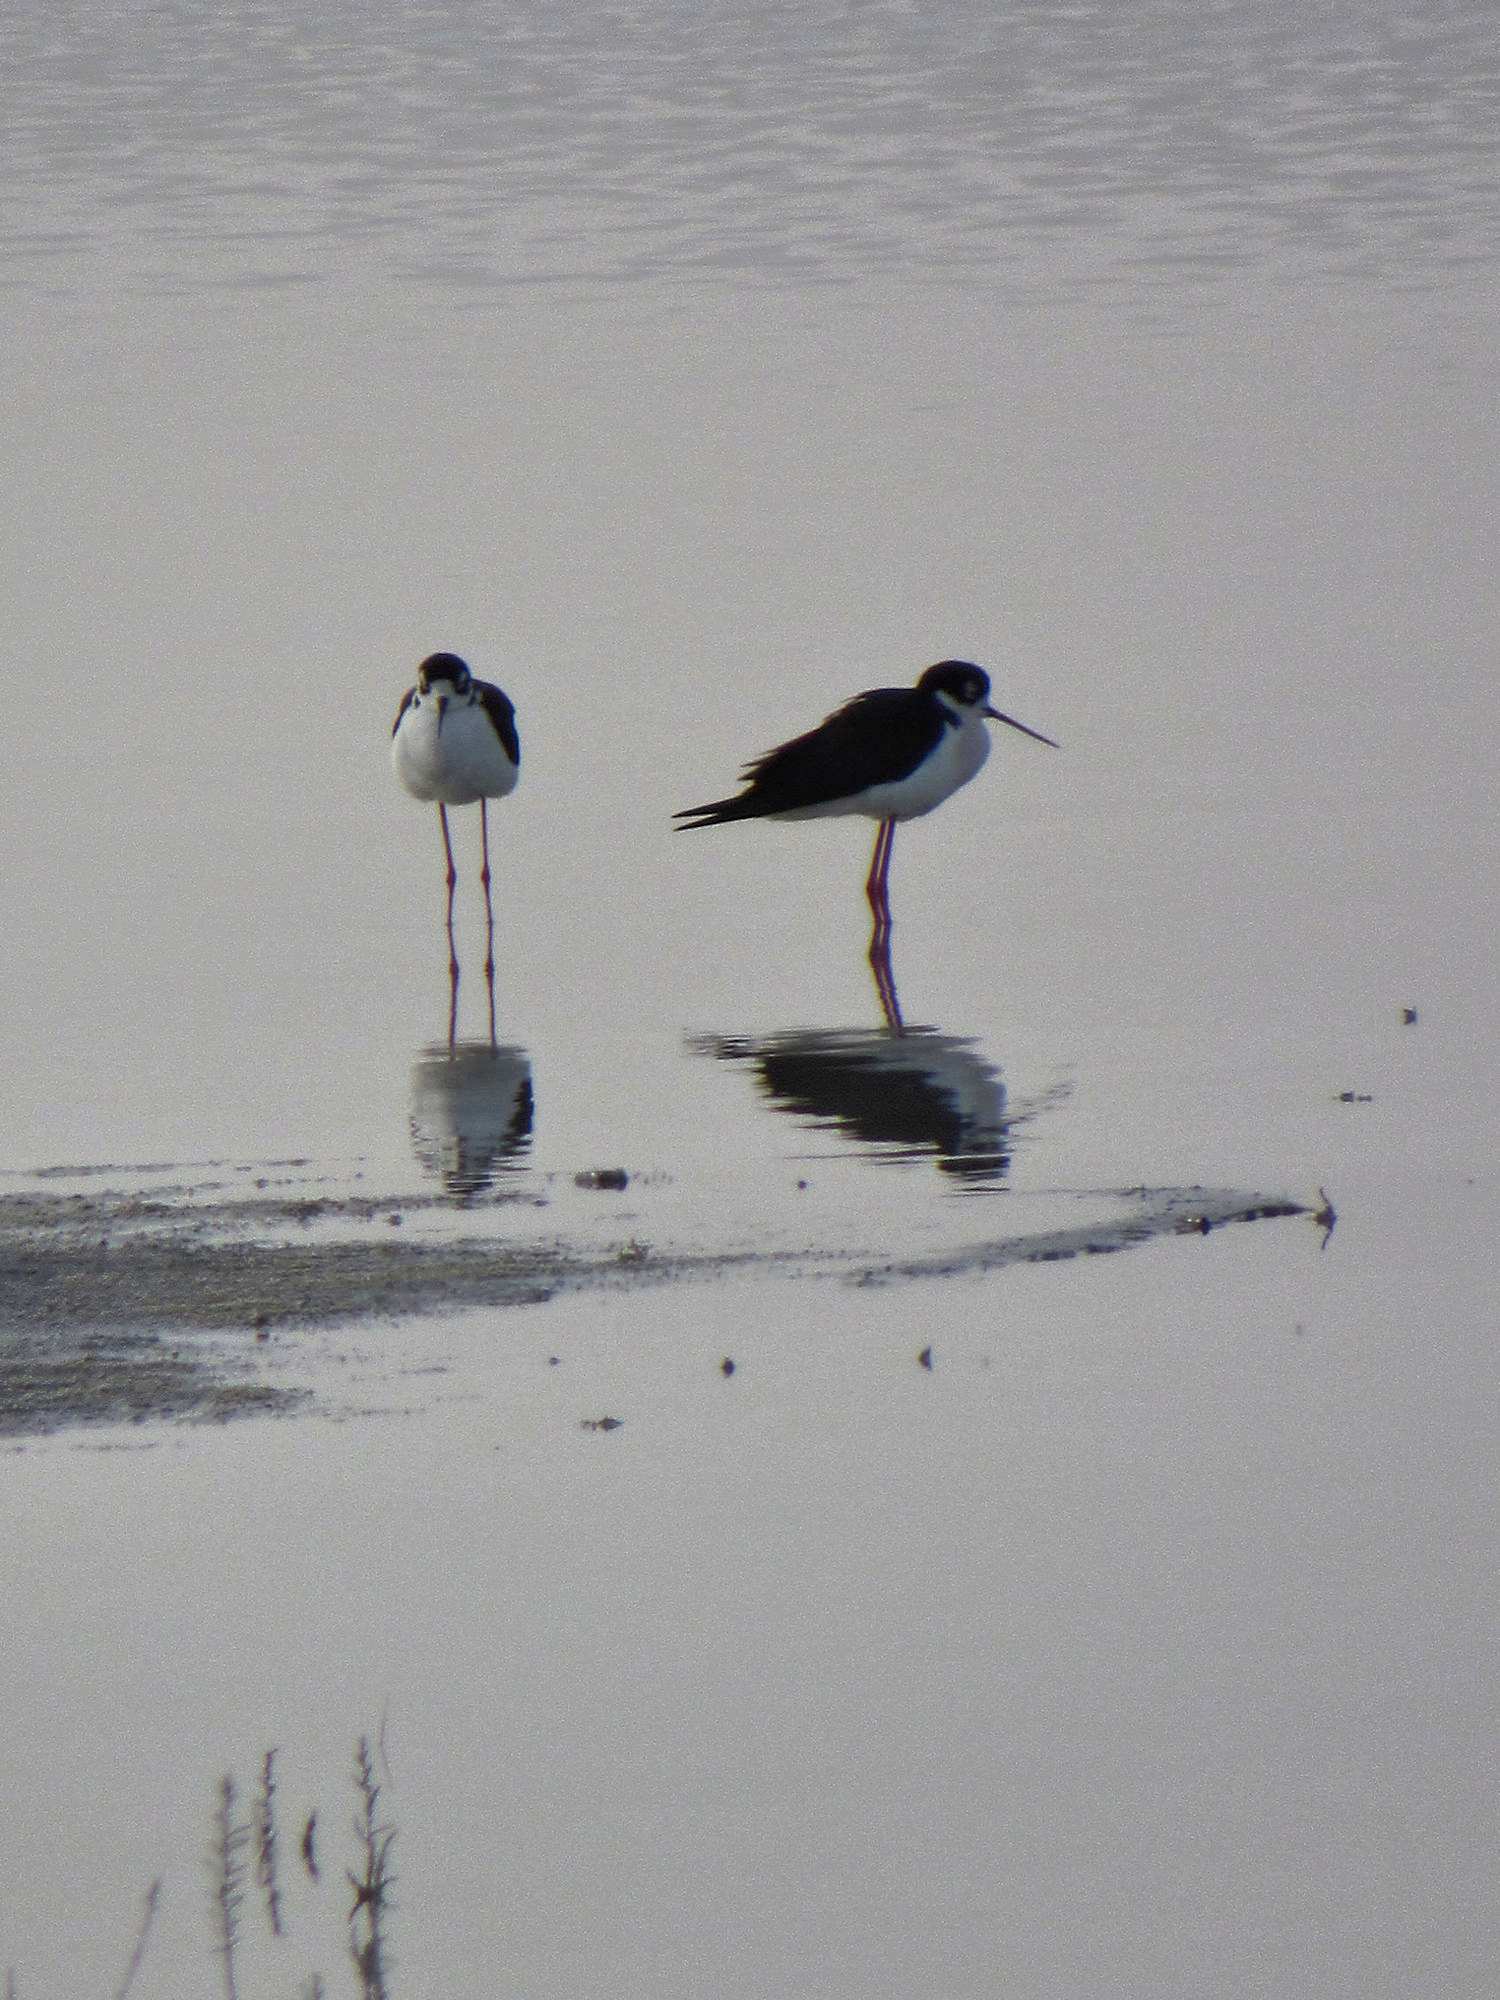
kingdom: Animalia
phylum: Chordata
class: Aves
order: Charadriiformes
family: Recurvirostridae
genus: Himantopus
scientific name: Himantopus mexicanus
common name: Black-necked stilt
